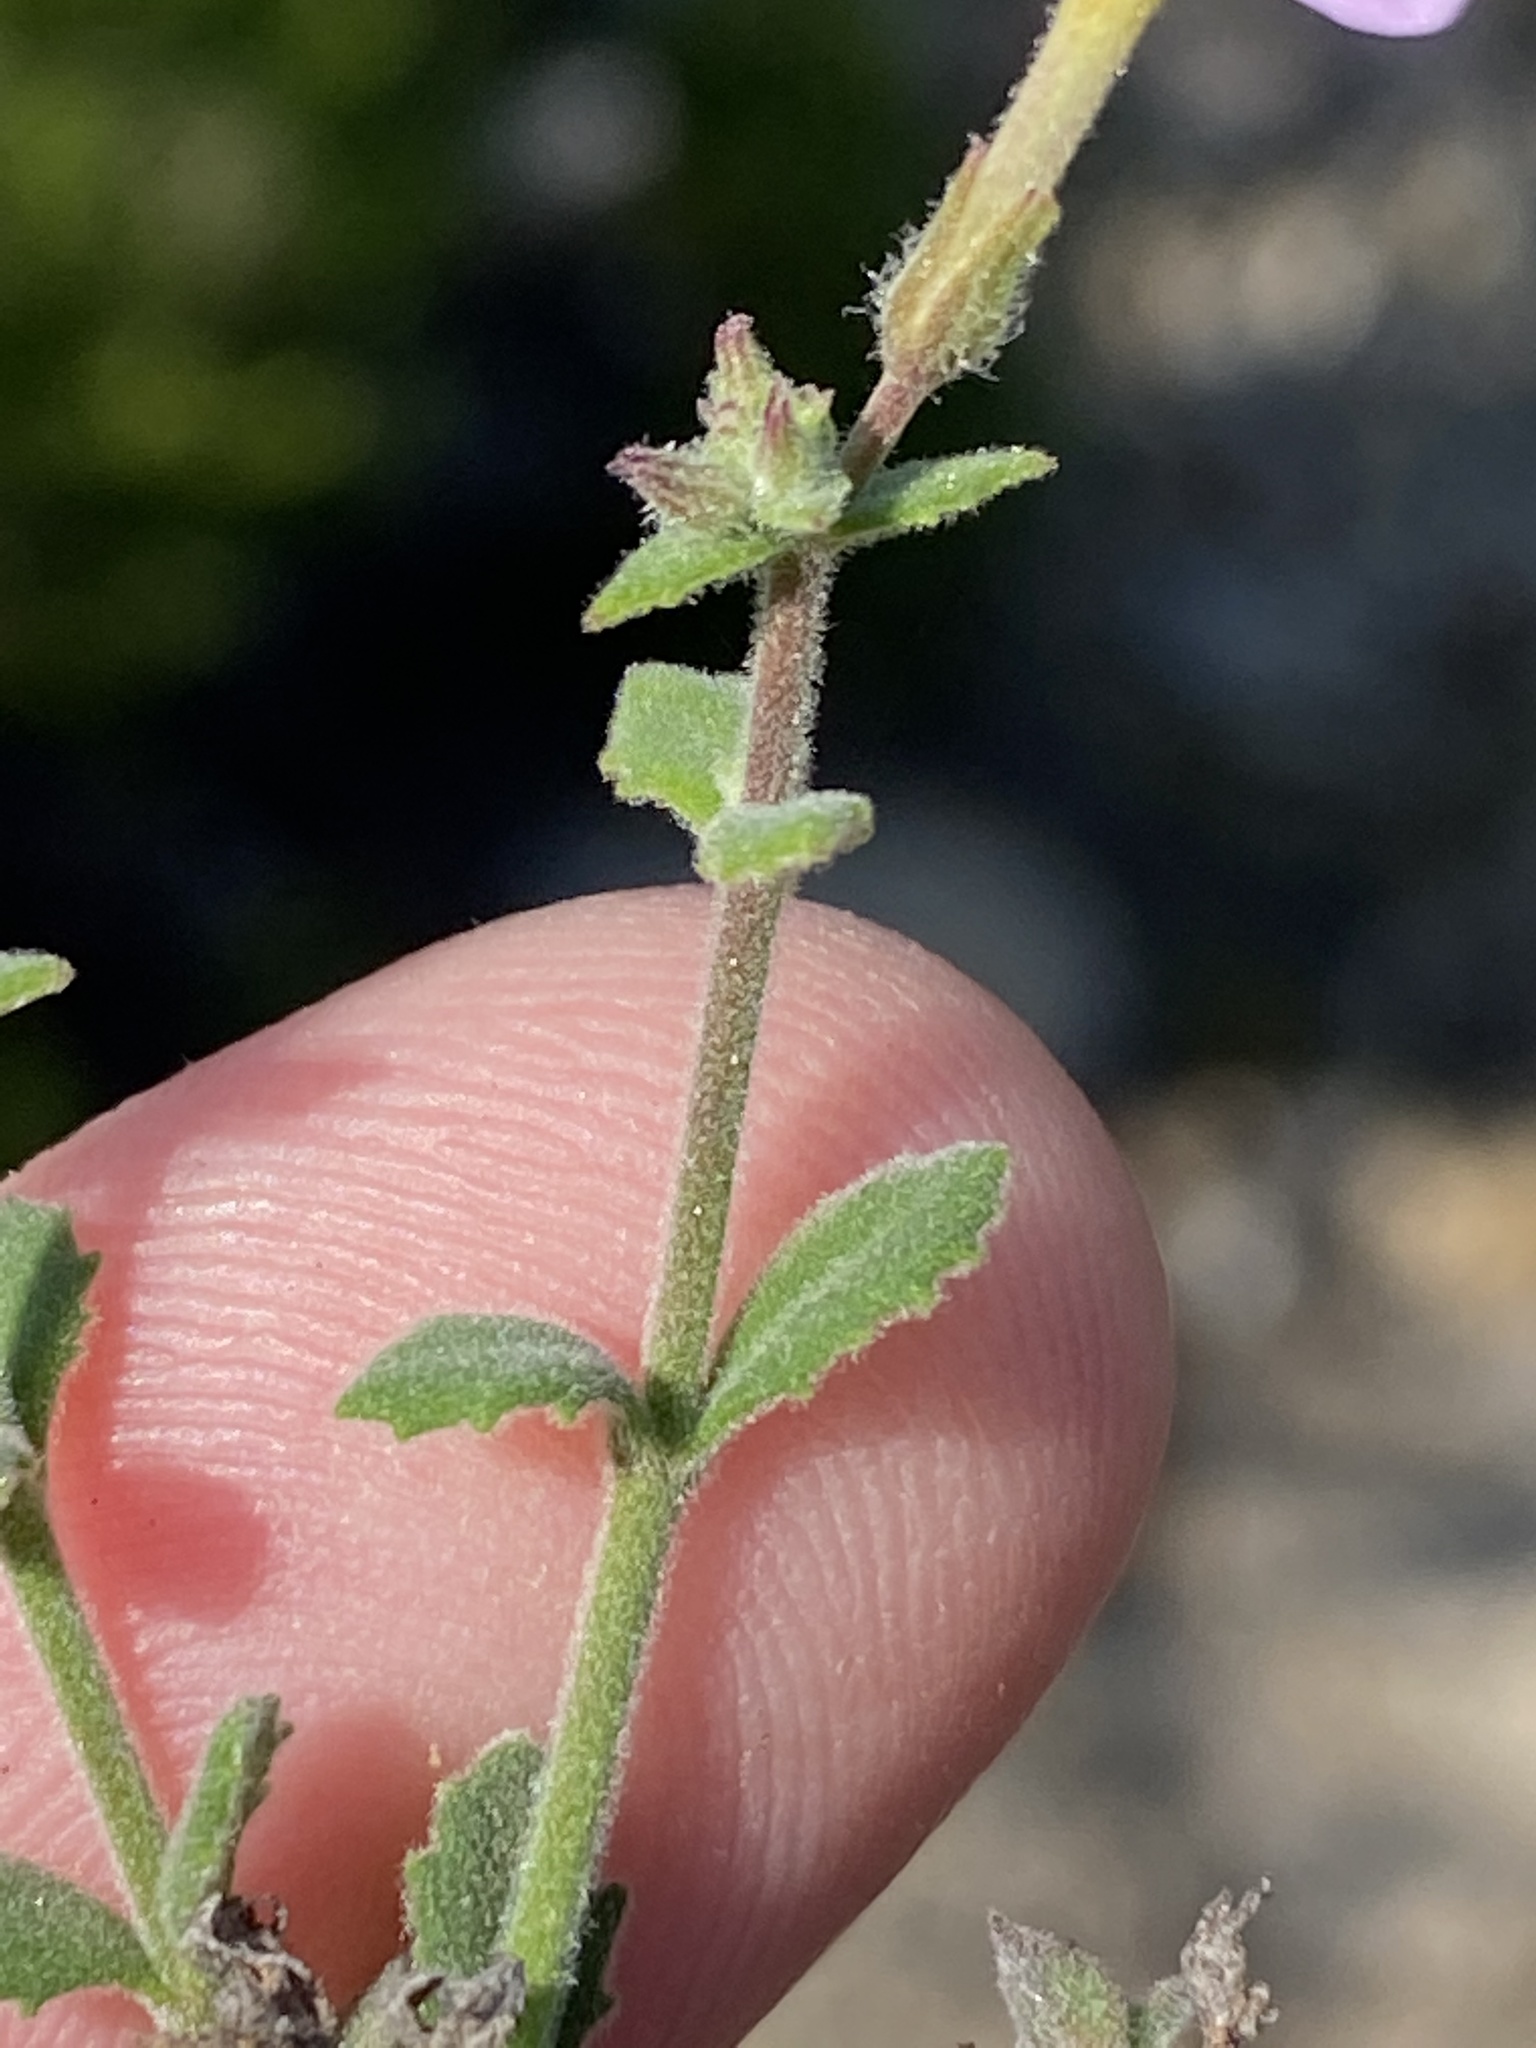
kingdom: Plantae
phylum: Tracheophyta
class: Magnoliopsida
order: Lamiales
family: Scrophulariaceae
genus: Chaenostoma
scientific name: Chaenostoma marifolium
